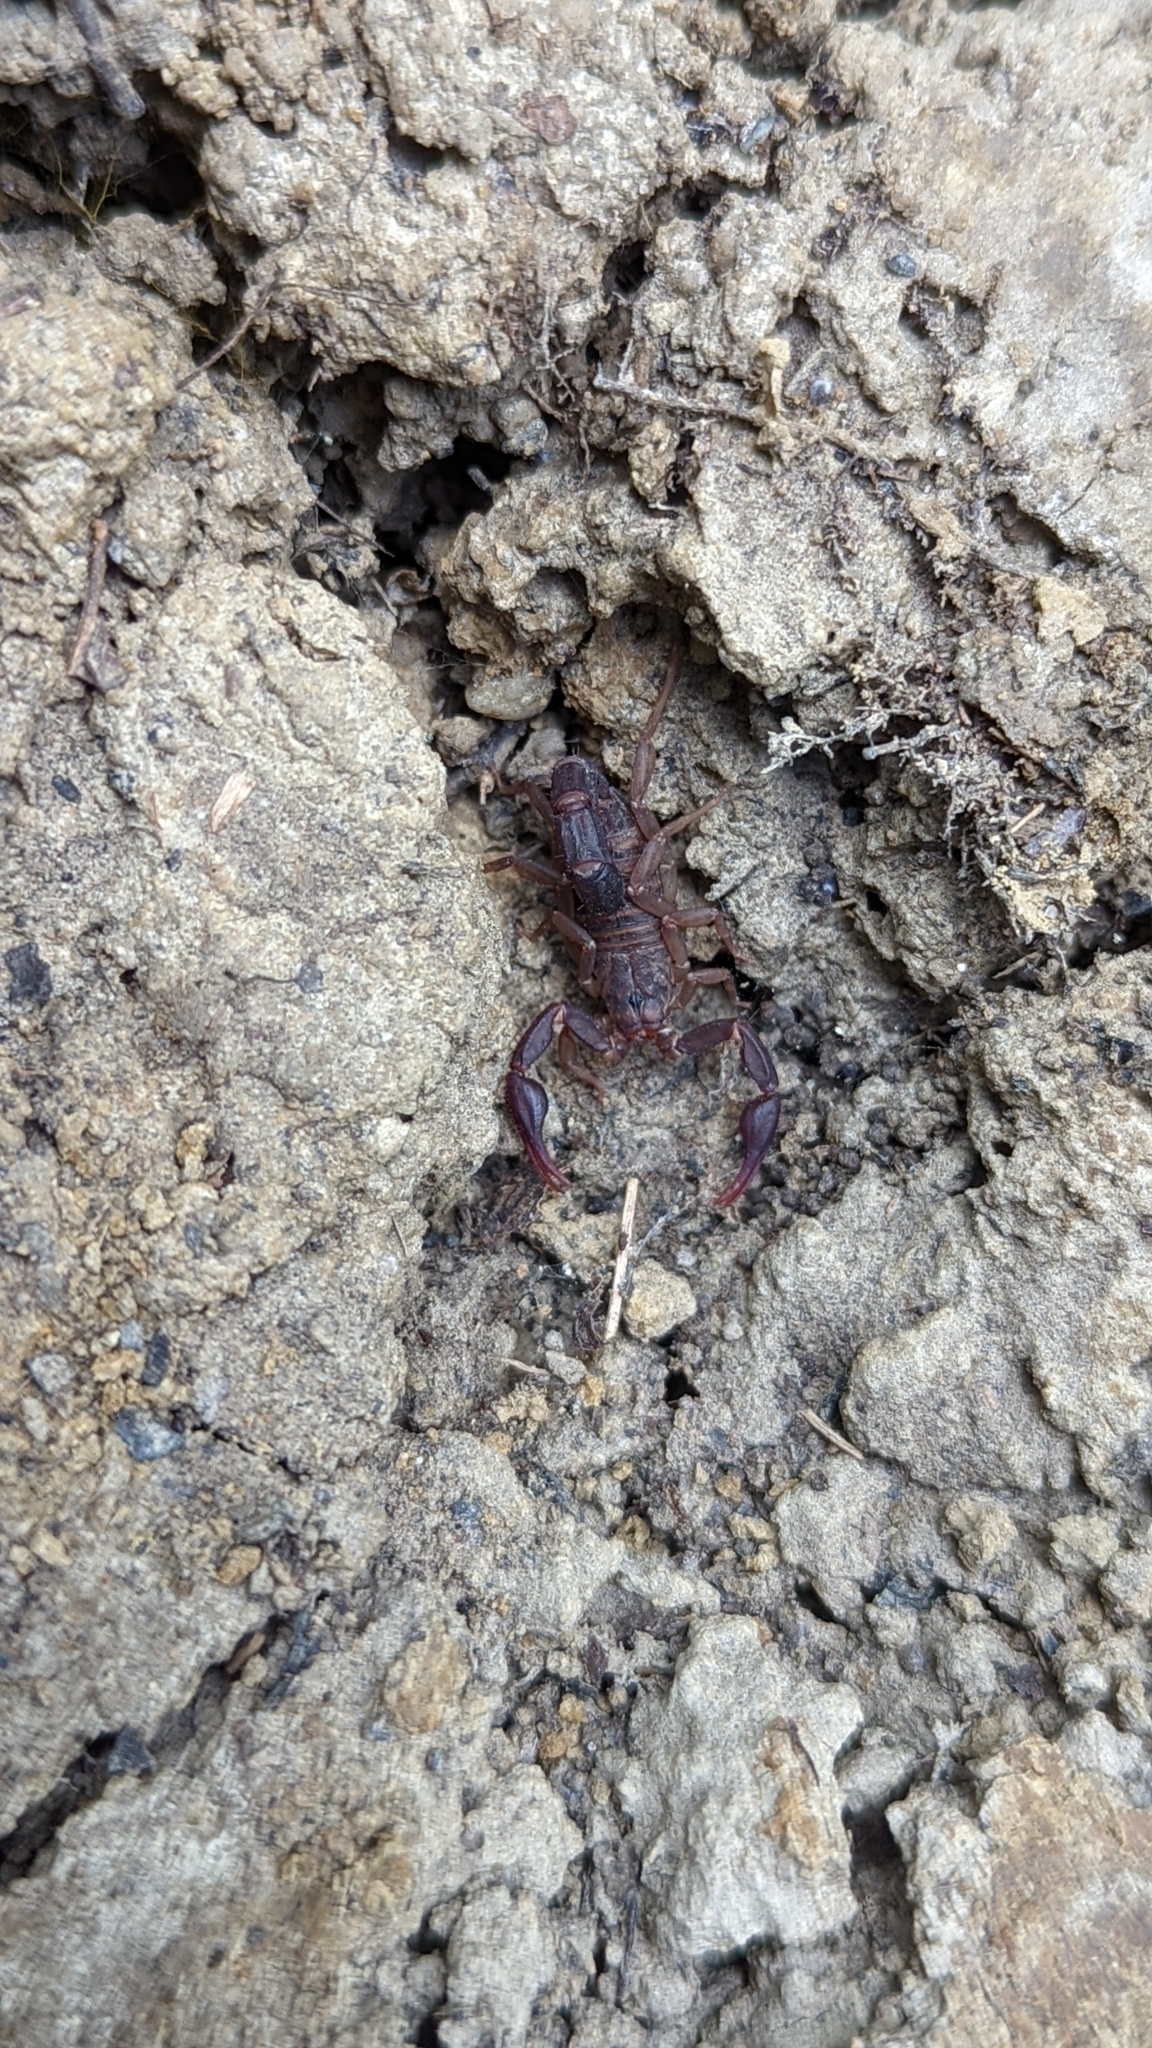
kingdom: Animalia
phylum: Arthropoda
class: Arachnida
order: Scorpiones
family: Vaejovidae
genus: Vaejovis
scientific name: Vaejovis carolinianus
